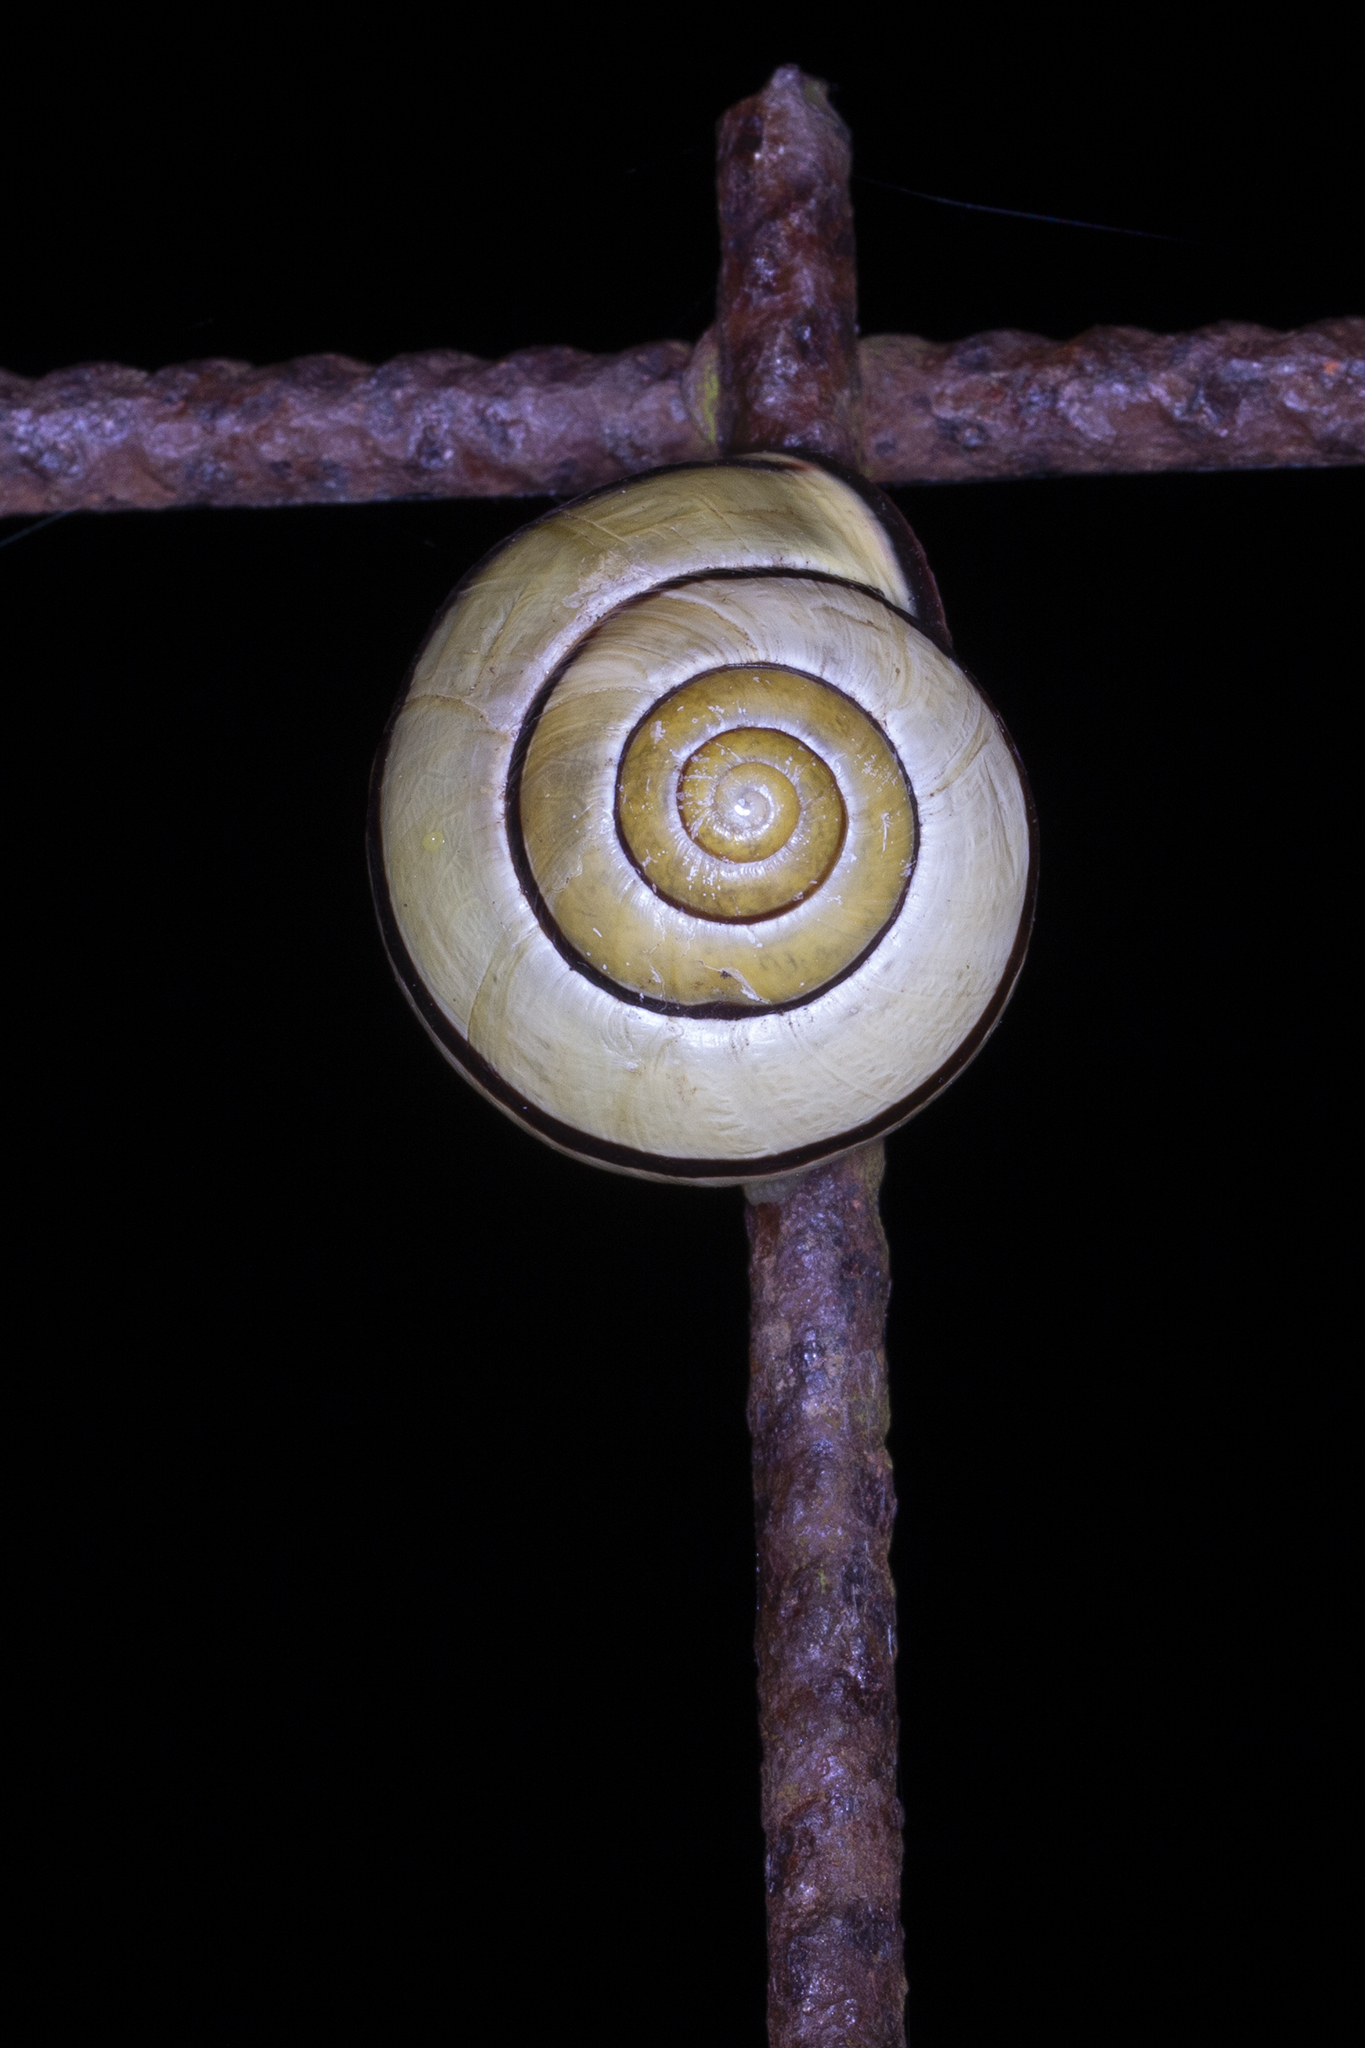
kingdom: Animalia
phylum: Mollusca
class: Gastropoda
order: Stylommatophora
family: Helicidae
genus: Cepaea
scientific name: Cepaea nemoralis
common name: Grovesnail
